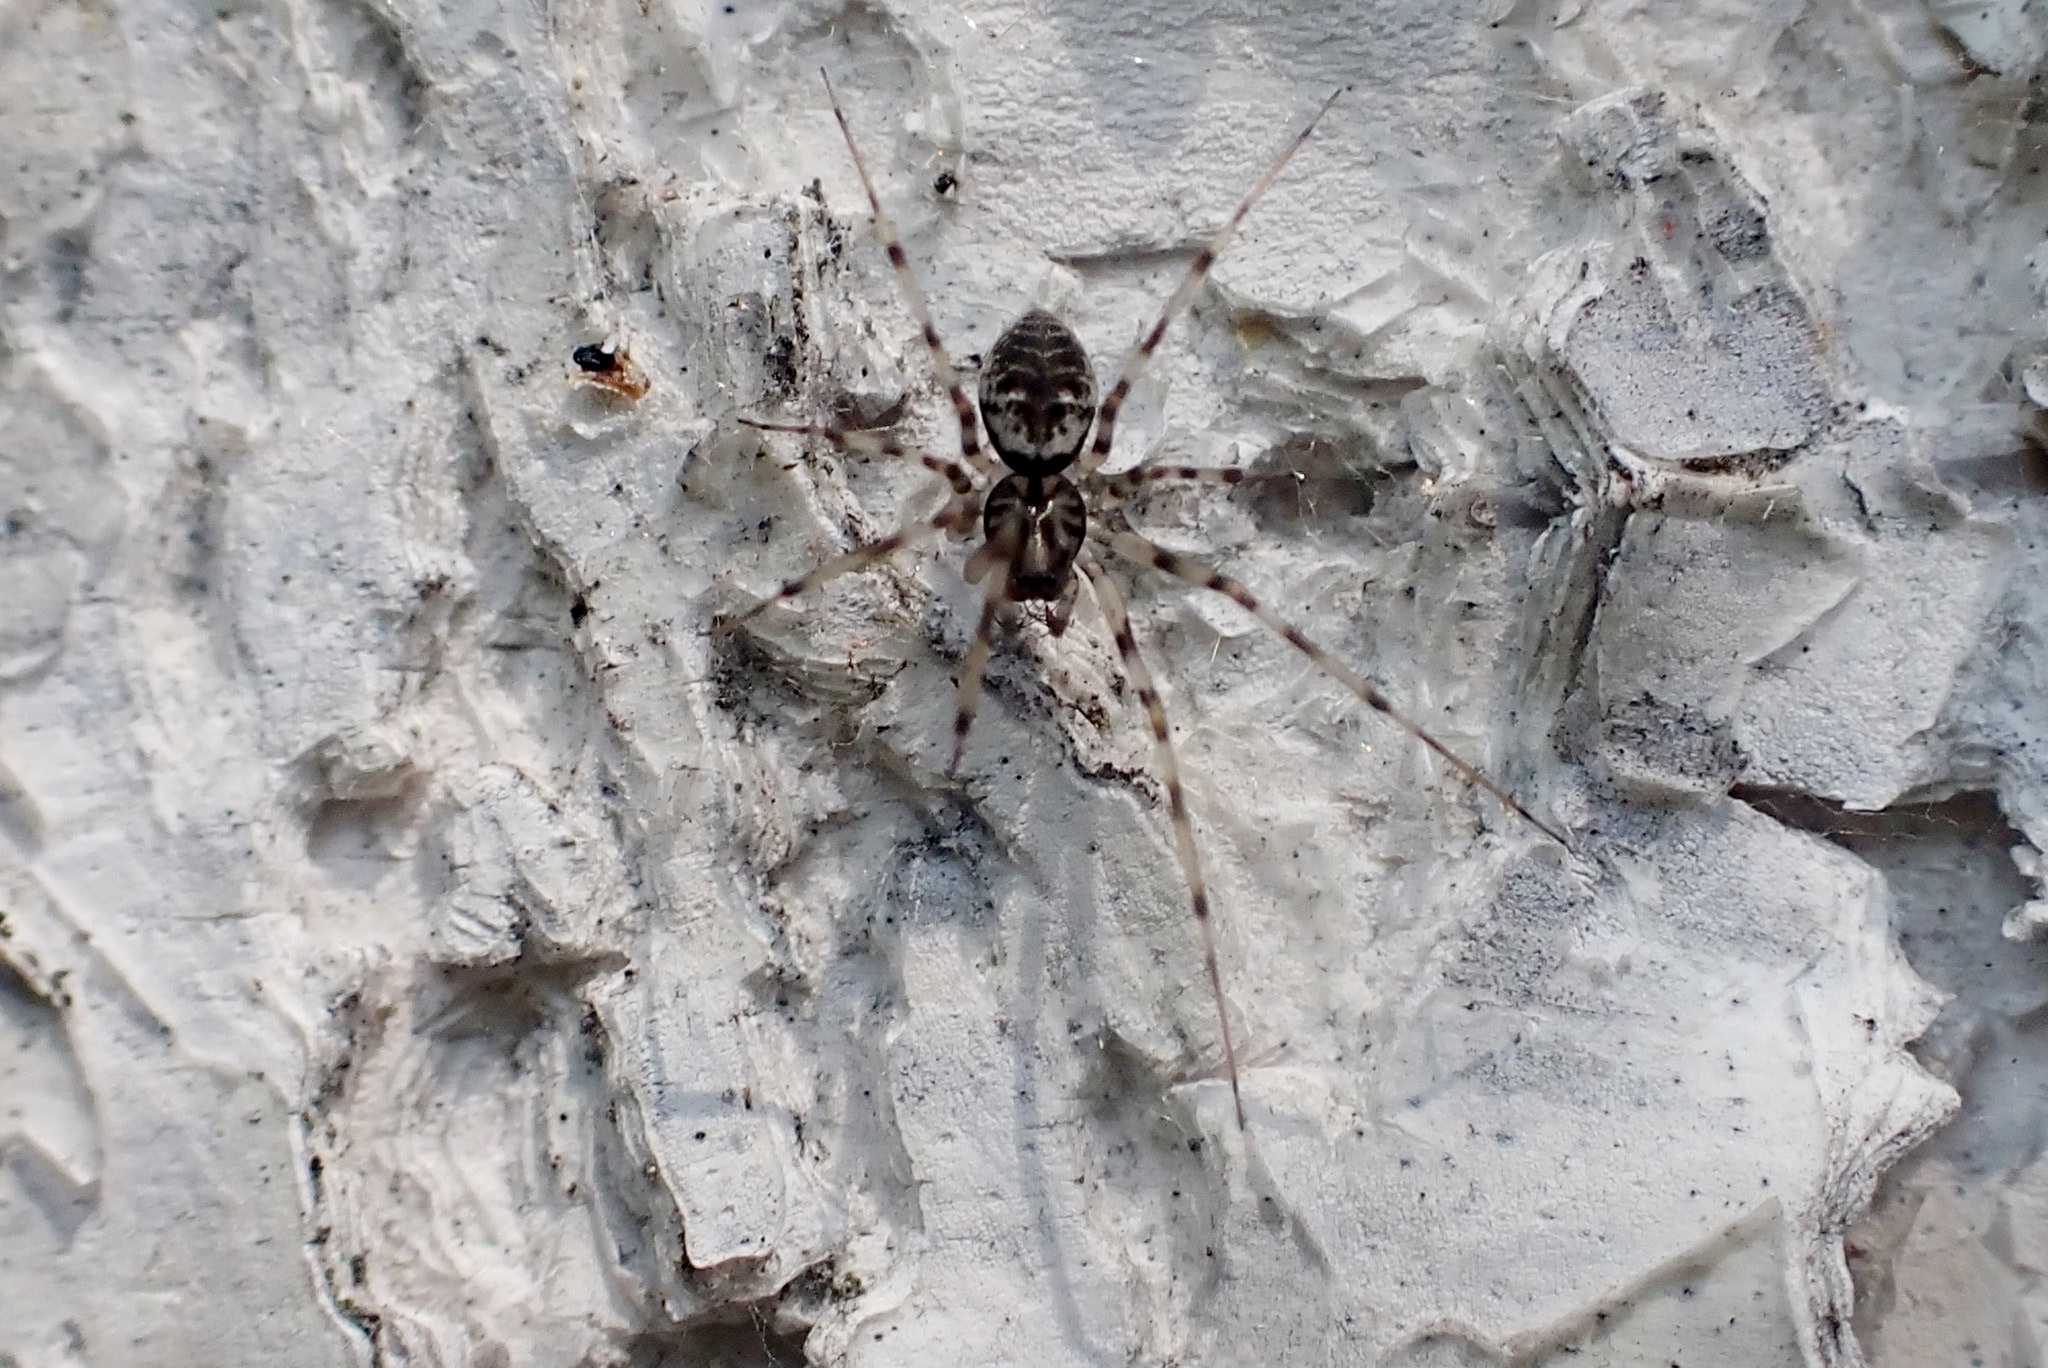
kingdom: Animalia
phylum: Arthropoda
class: Arachnida
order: Araneae
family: Linyphiidae
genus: Drapetisca
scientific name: Drapetisca socialis
